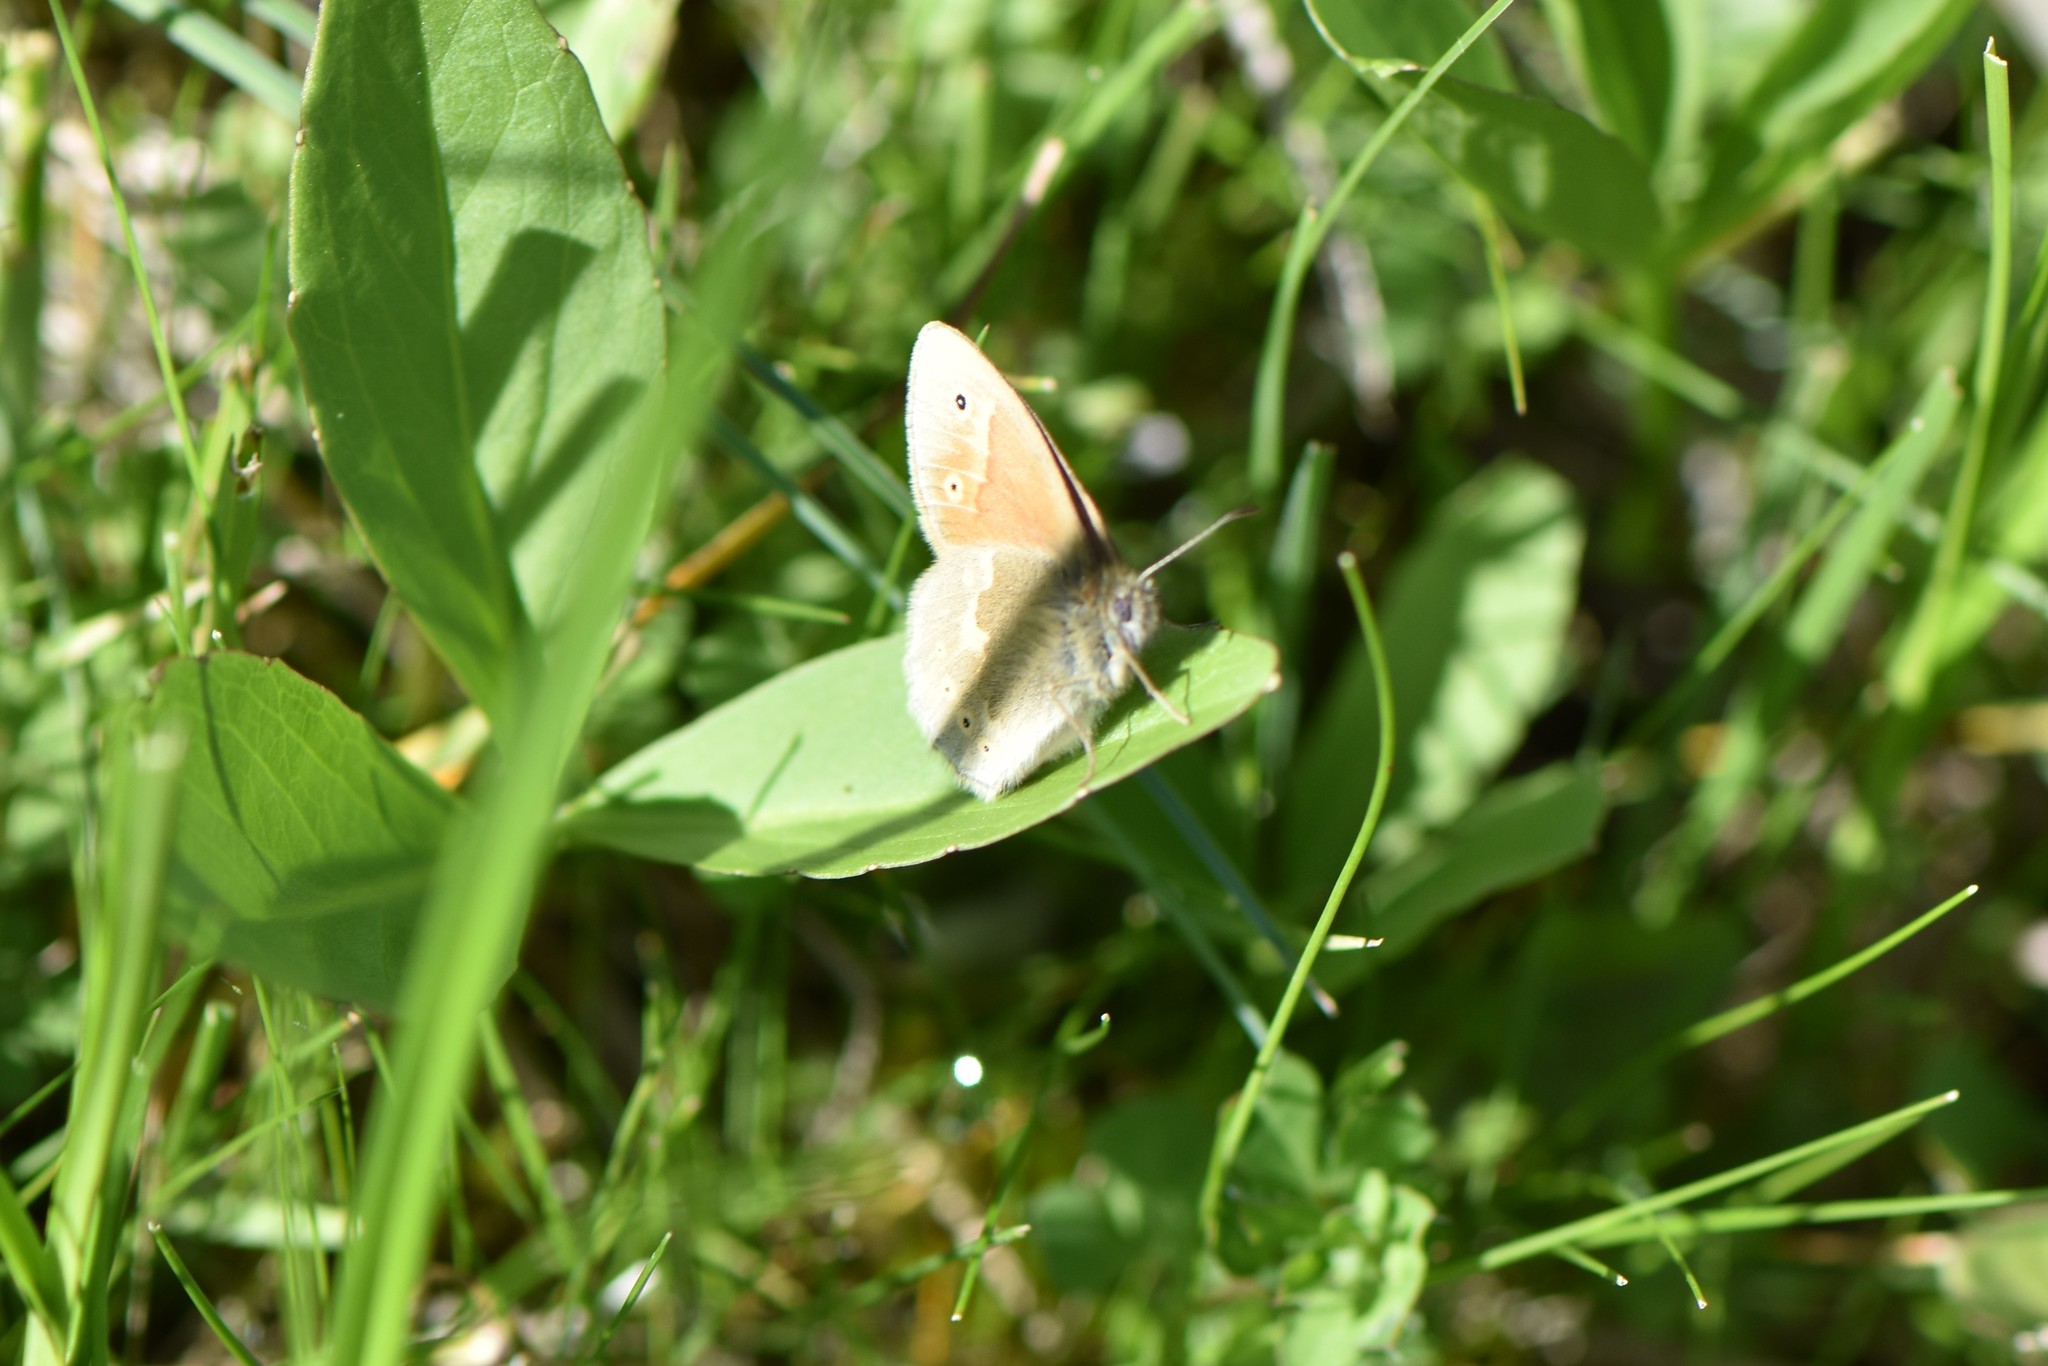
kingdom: Animalia
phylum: Arthropoda
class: Insecta
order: Lepidoptera
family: Nymphalidae
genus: Coenonympha
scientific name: Coenonympha tullia
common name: Large heath
